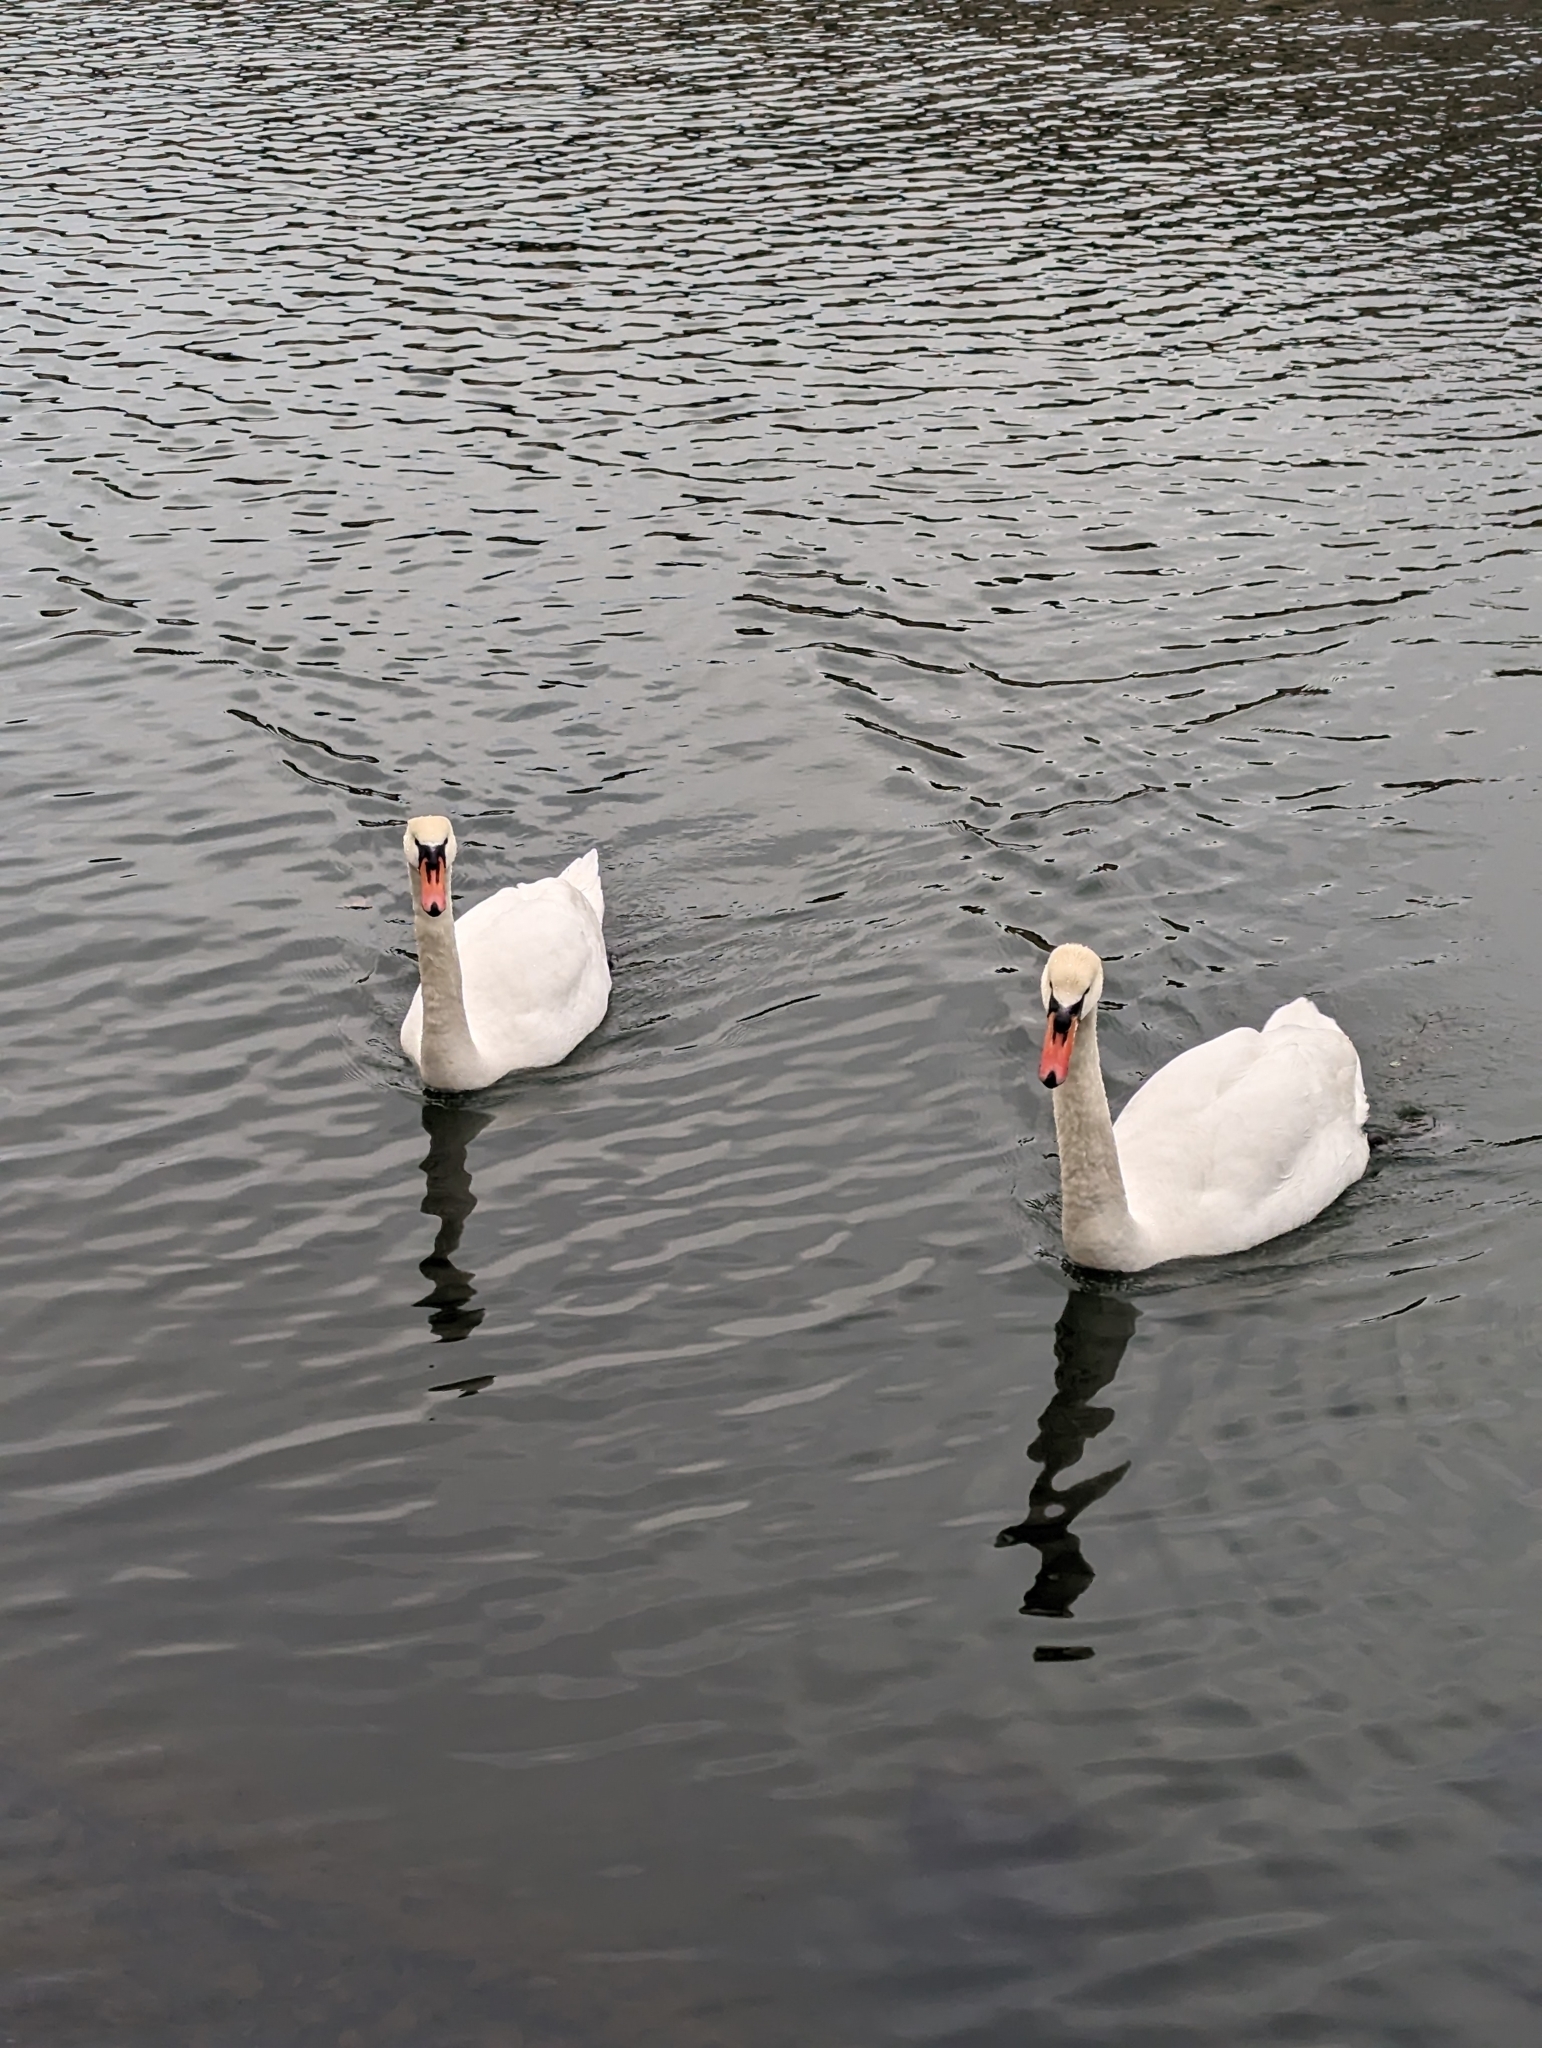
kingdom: Animalia
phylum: Chordata
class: Aves
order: Anseriformes
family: Anatidae
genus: Cygnus
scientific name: Cygnus olor
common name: Mute swan
